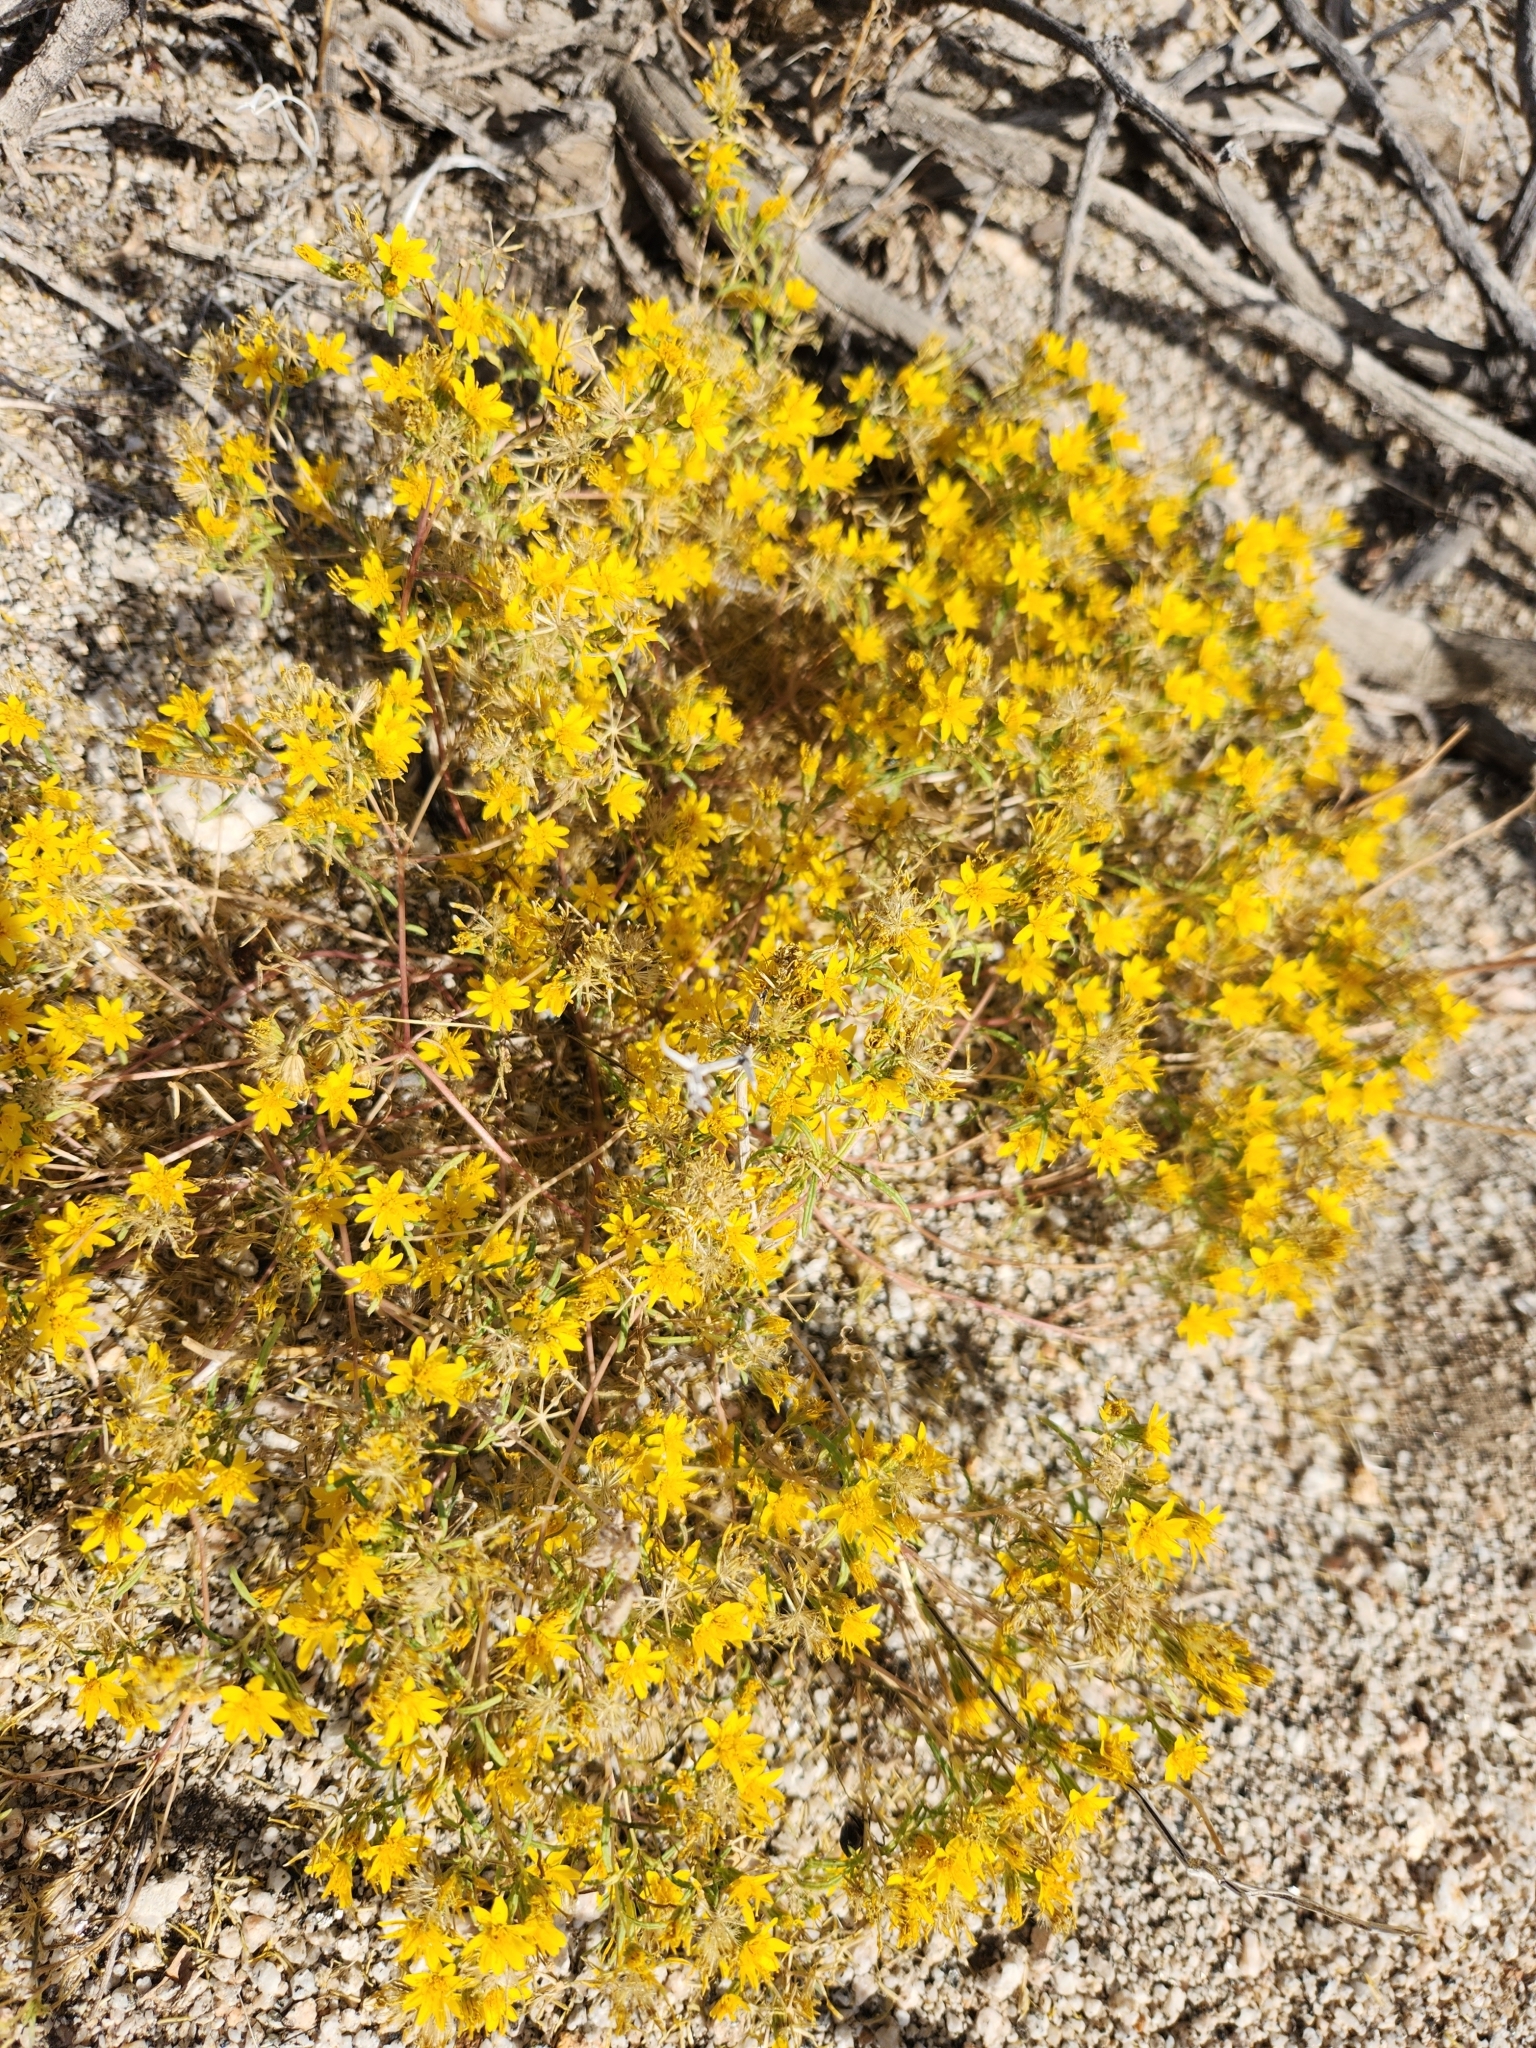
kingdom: Plantae
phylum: Tracheophyta
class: Magnoliopsida
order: Asterales
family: Asteraceae
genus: Pectis
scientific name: Pectis papposa
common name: Many-bristle chinchweed
